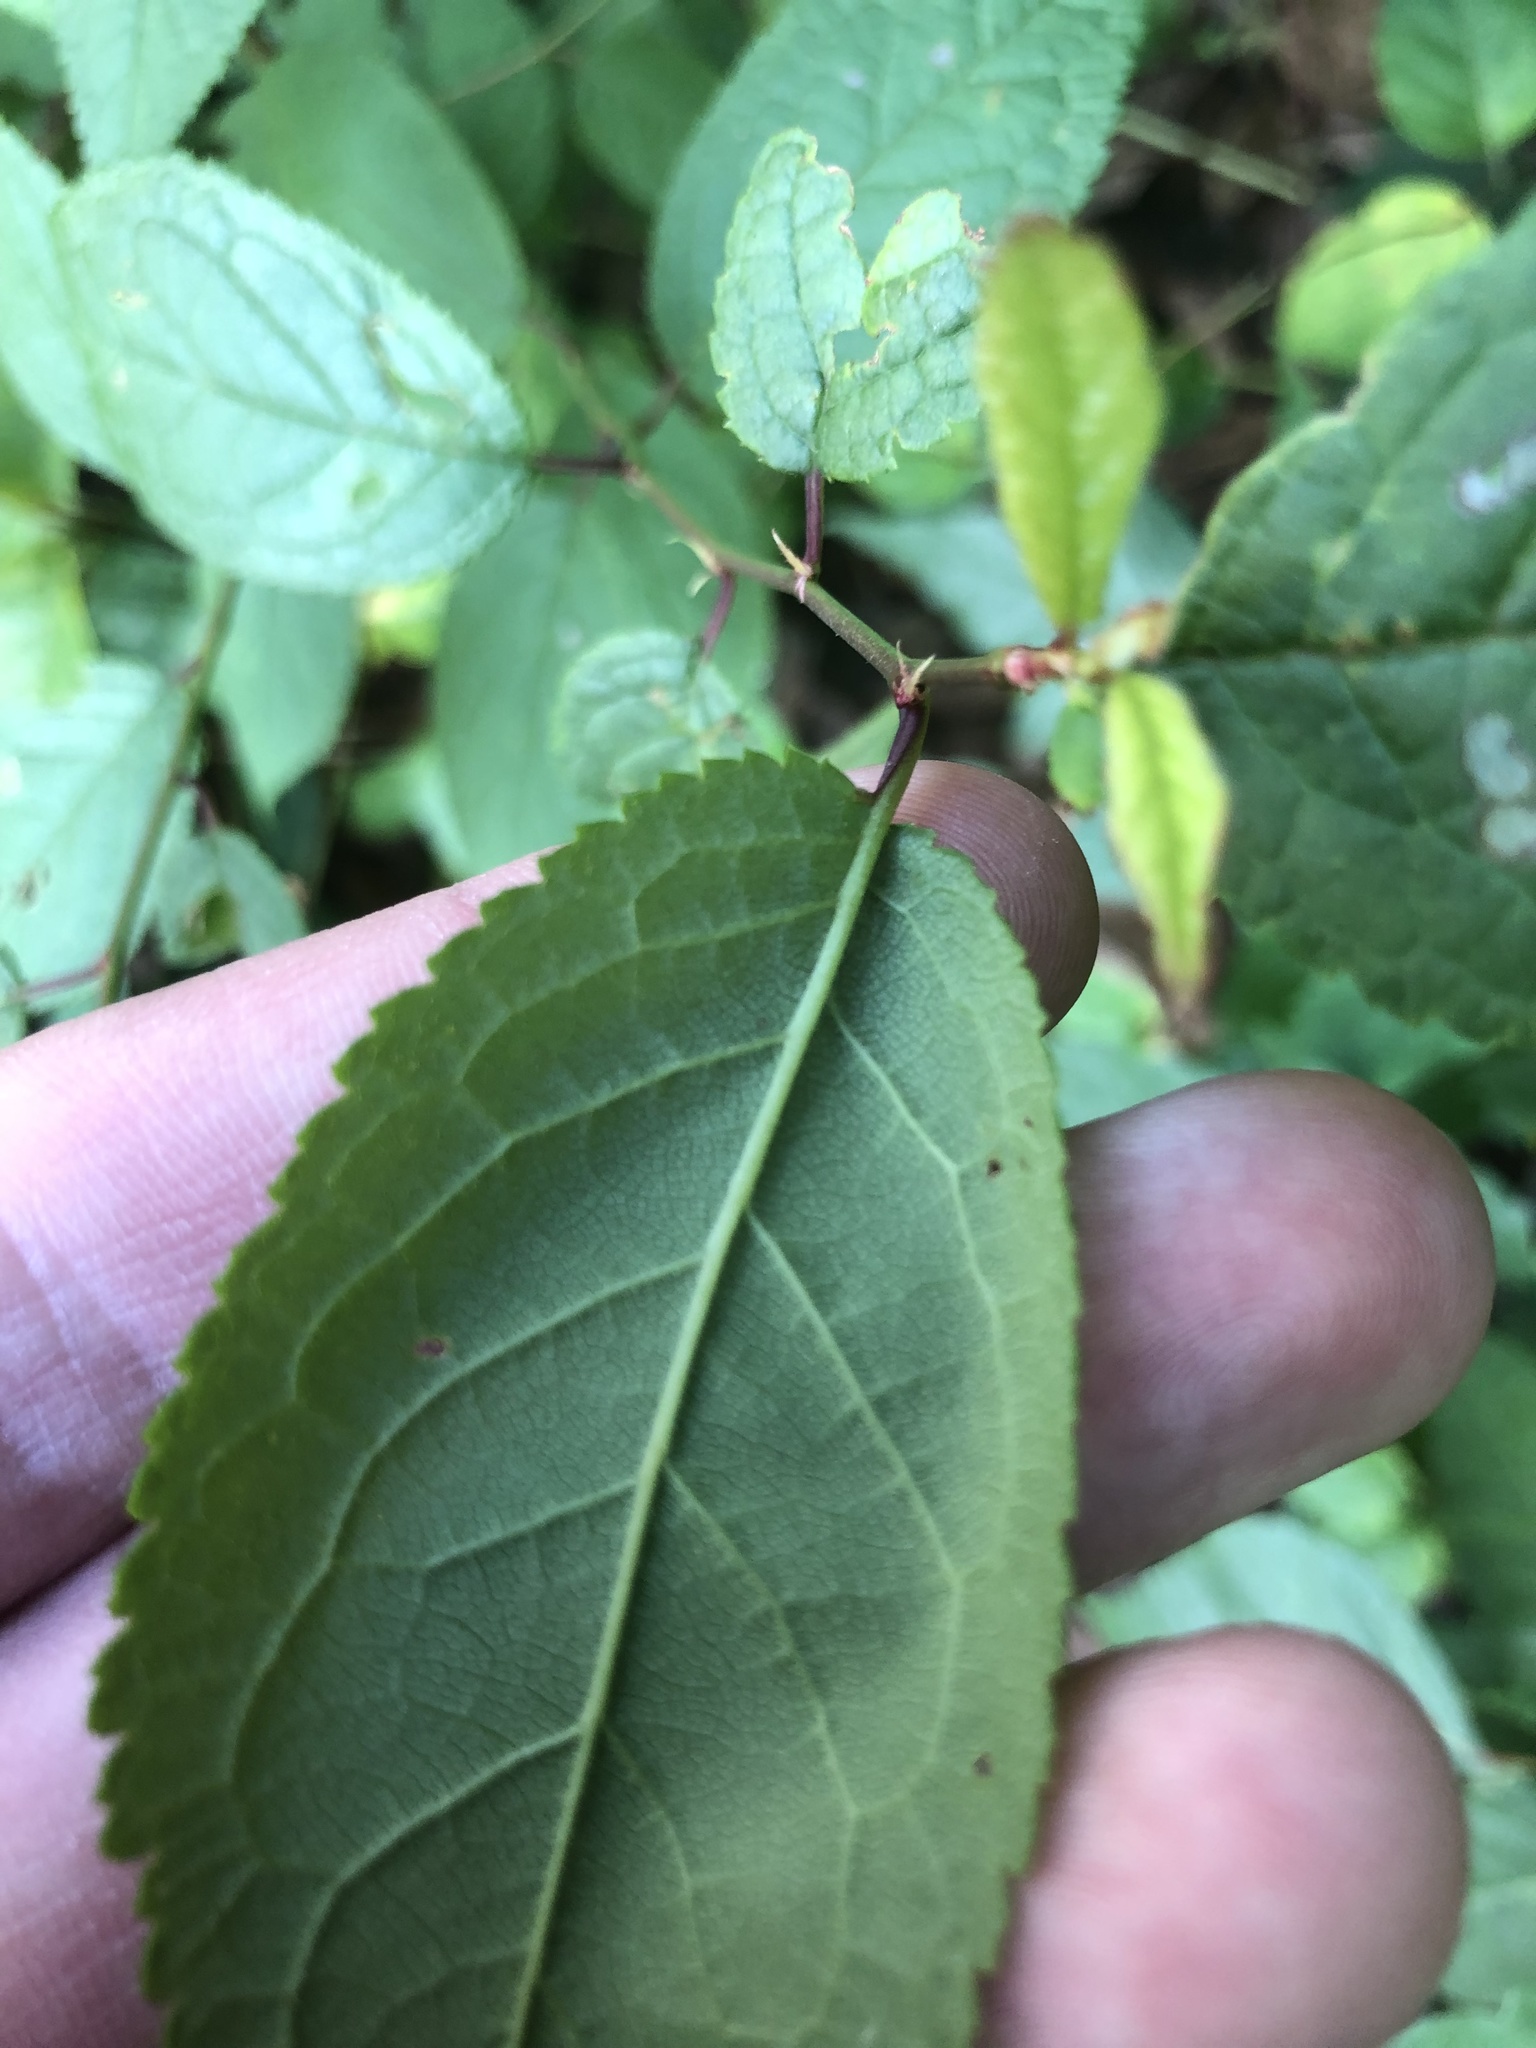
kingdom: Plantae
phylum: Tracheophyta
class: Magnoliopsida
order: Rosales
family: Rosaceae
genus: Prunus
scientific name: Prunus mexicana
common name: Mexican plum
